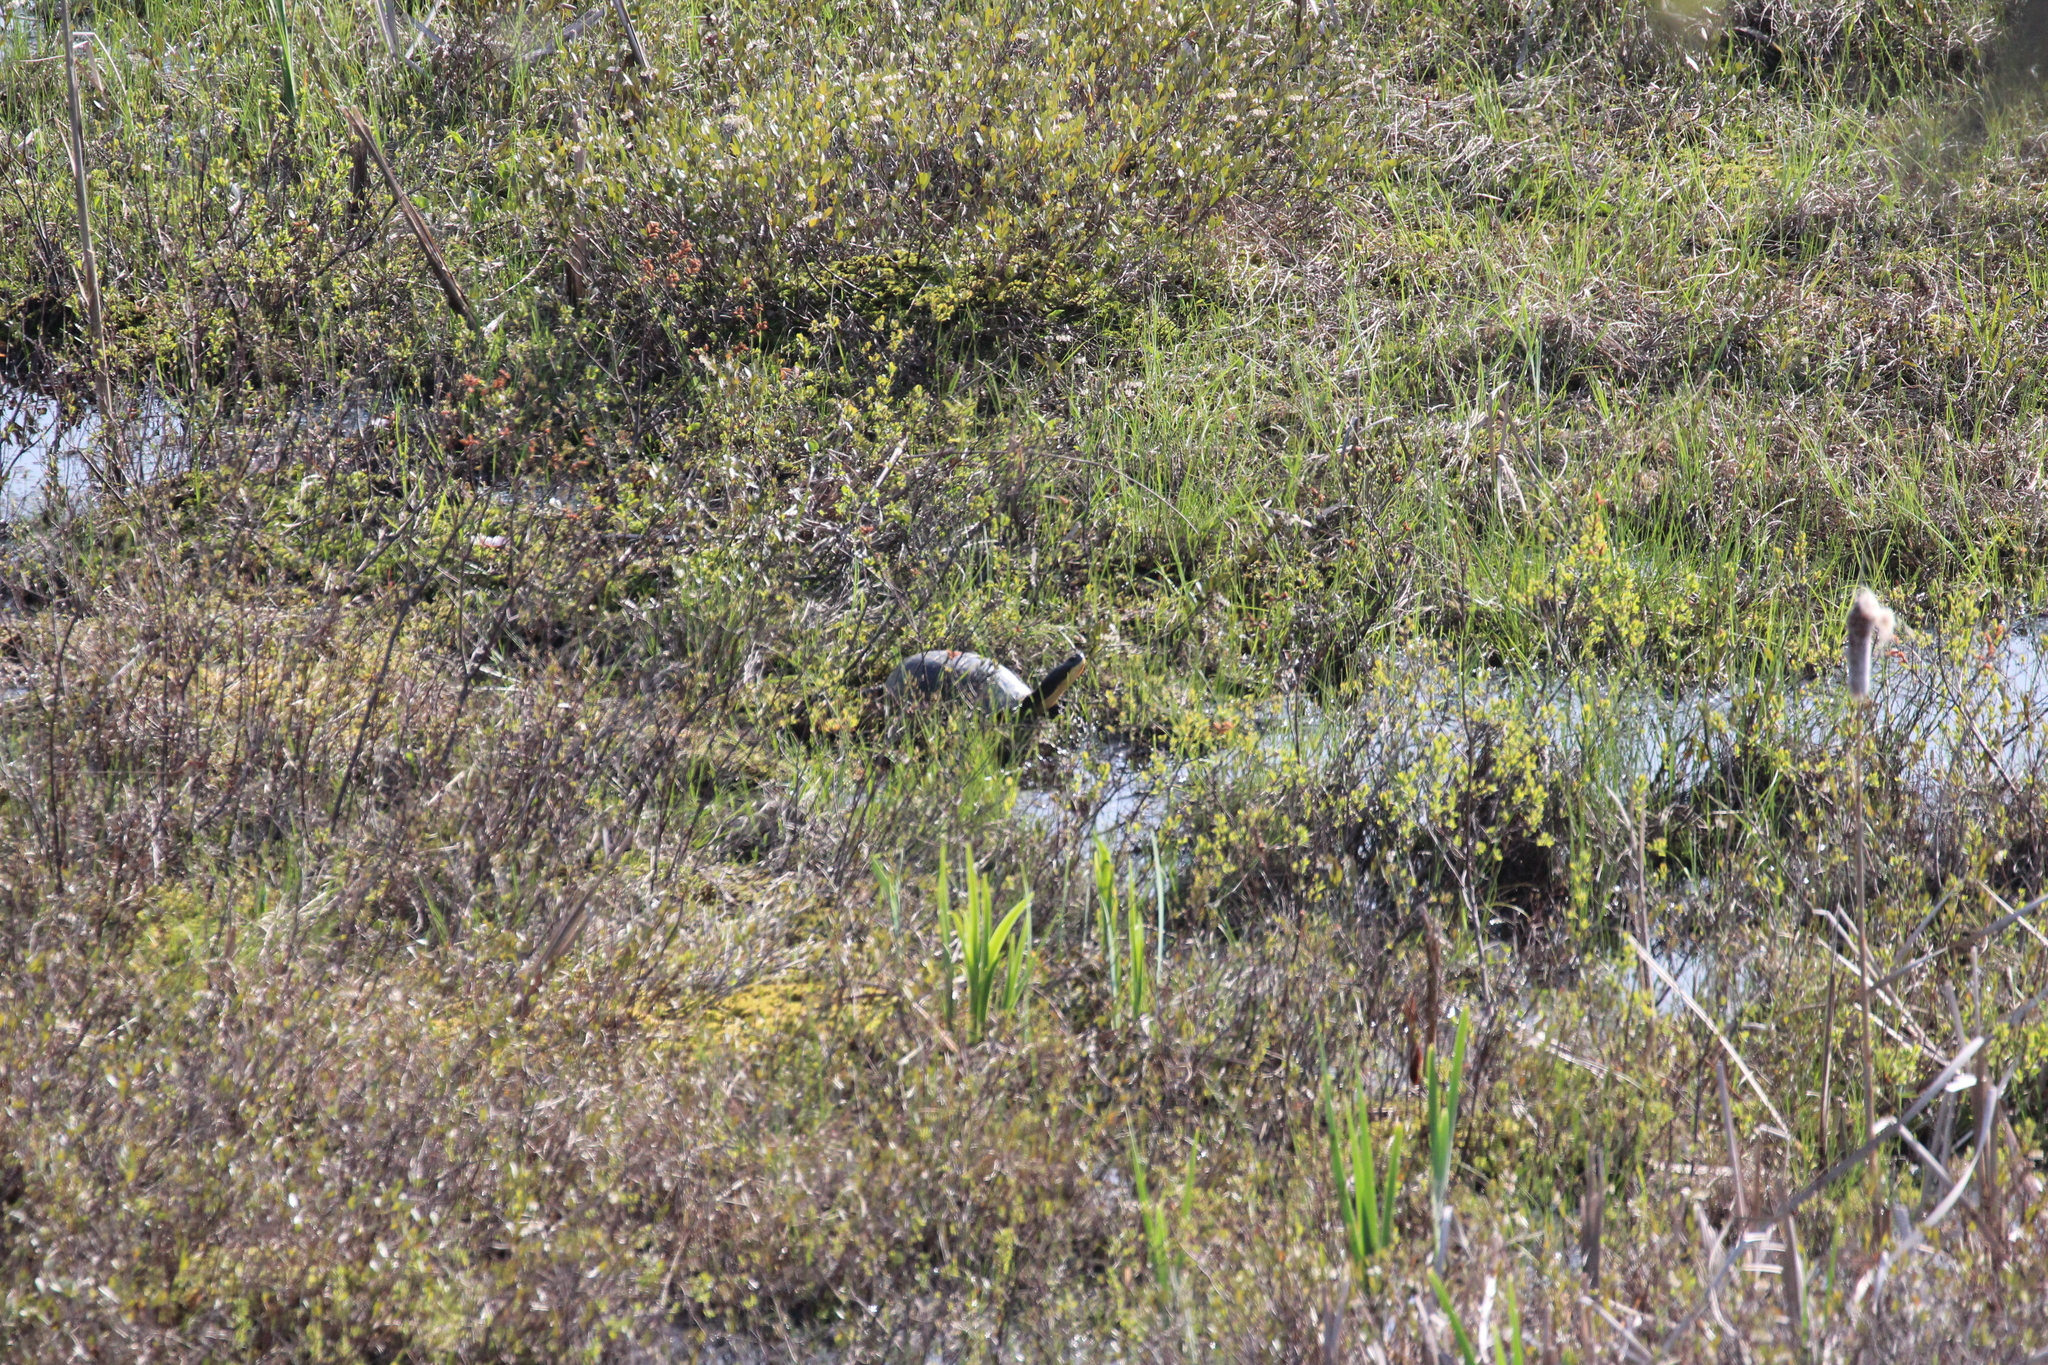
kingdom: Animalia
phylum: Chordata
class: Testudines
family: Emydidae
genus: Emys
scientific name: Emys blandingii
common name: Blanding's turtle
